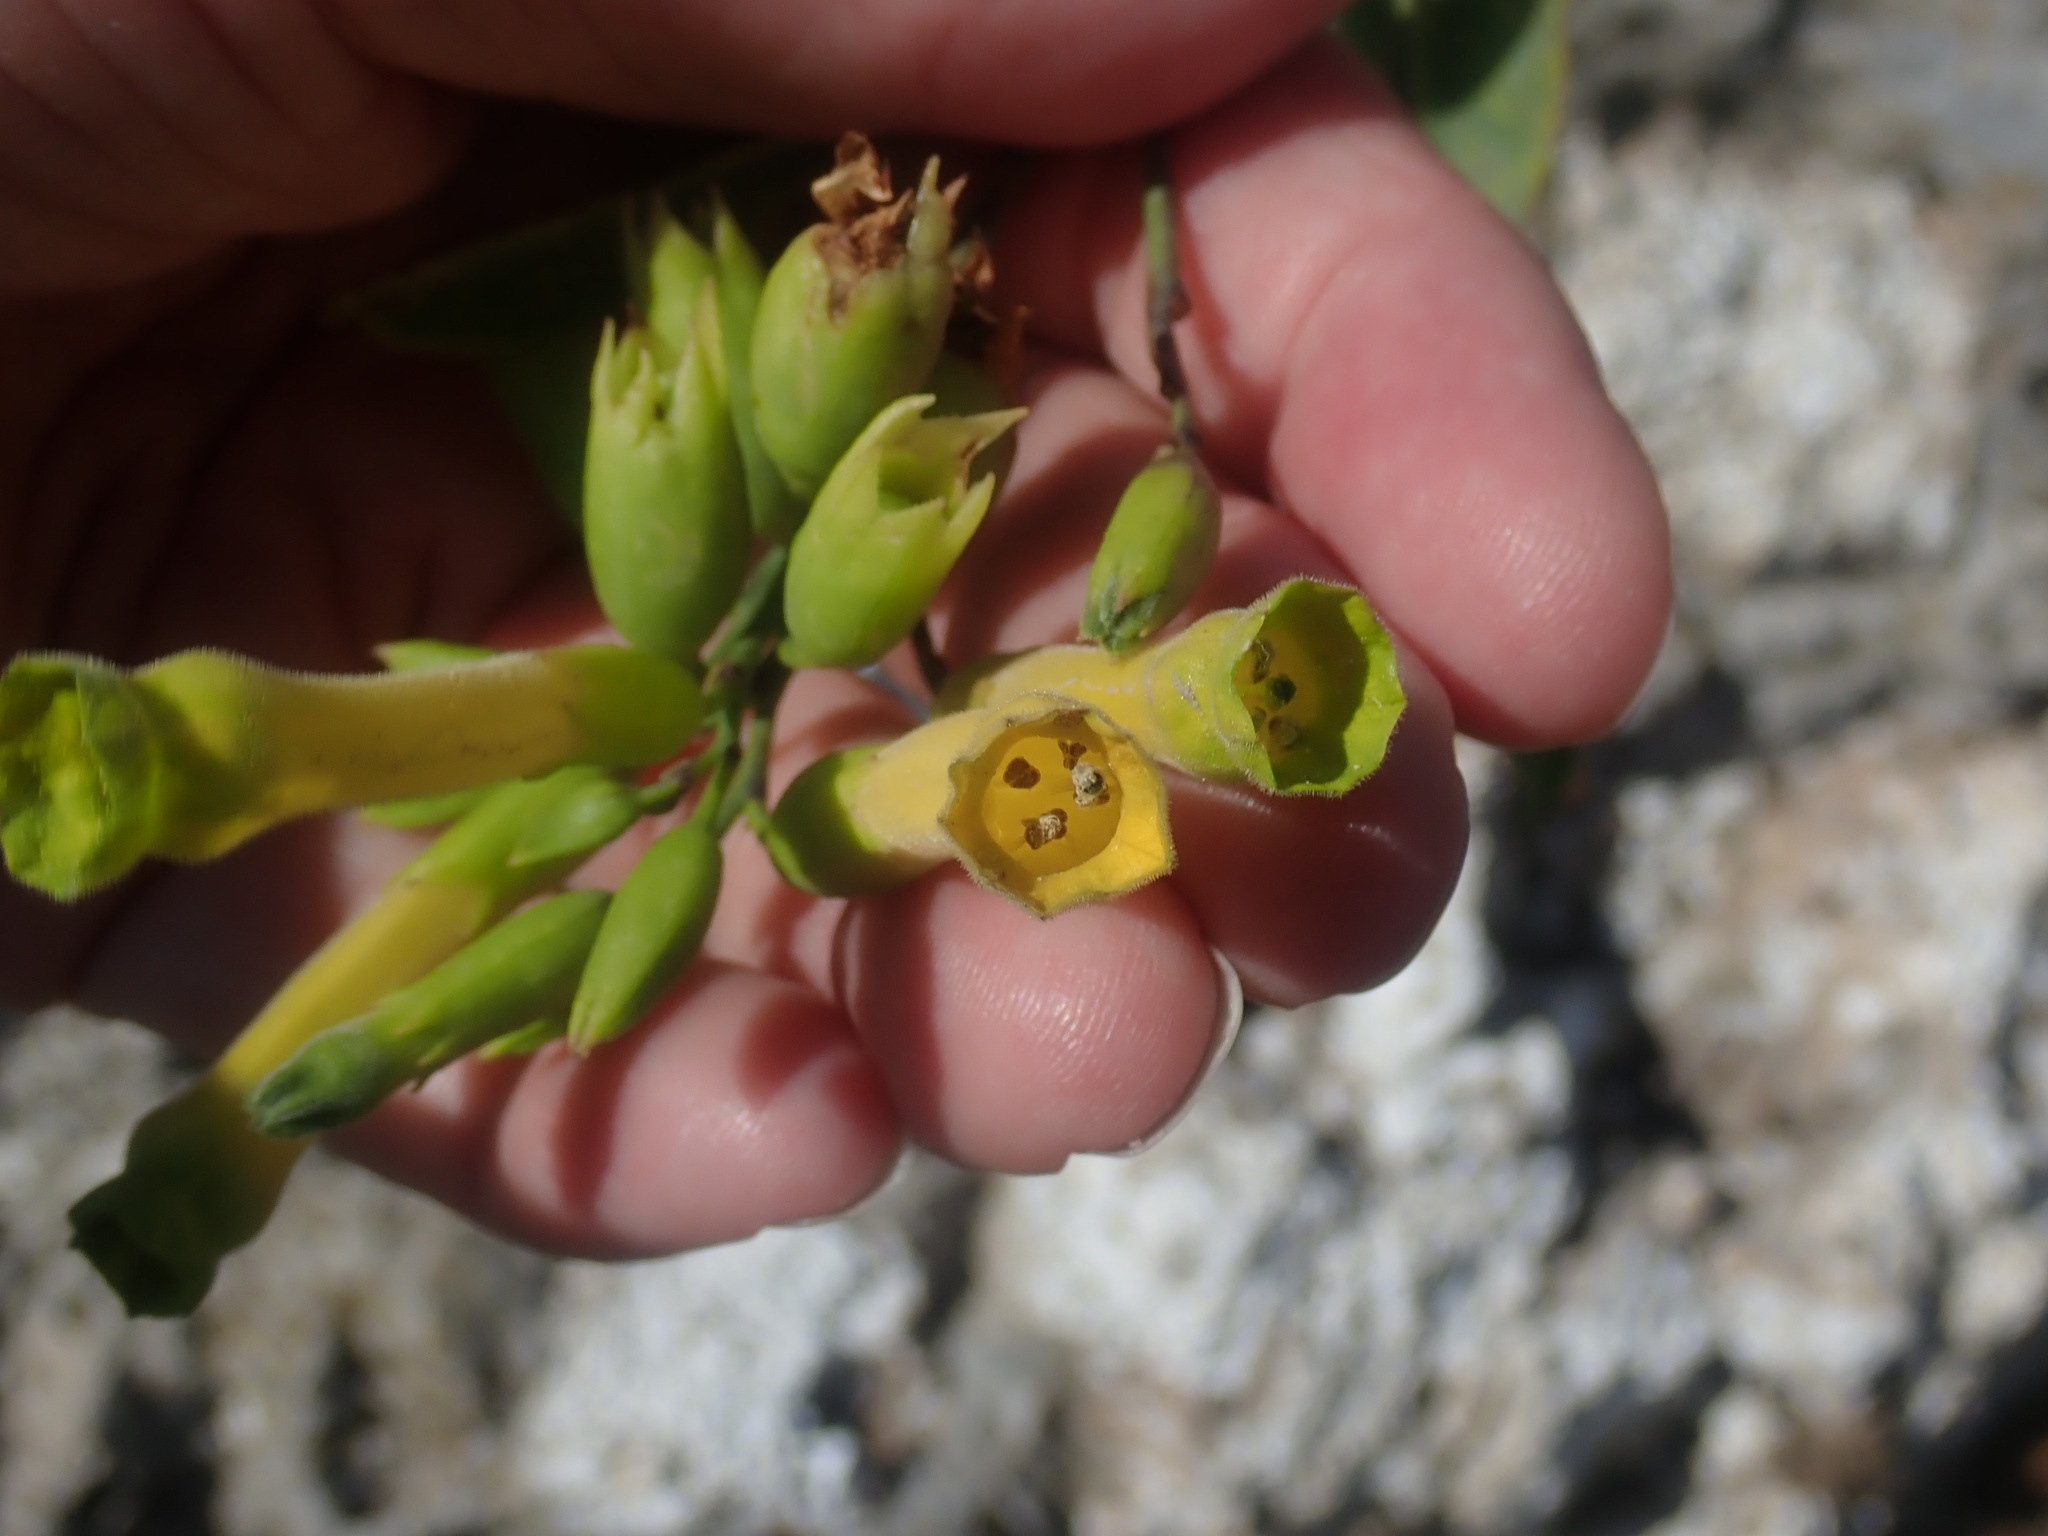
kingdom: Plantae
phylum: Tracheophyta
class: Magnoliopsida
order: Solanales
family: Solanaceae
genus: Nicotiana
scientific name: Nicotiana glauca
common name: Tree tobacco
